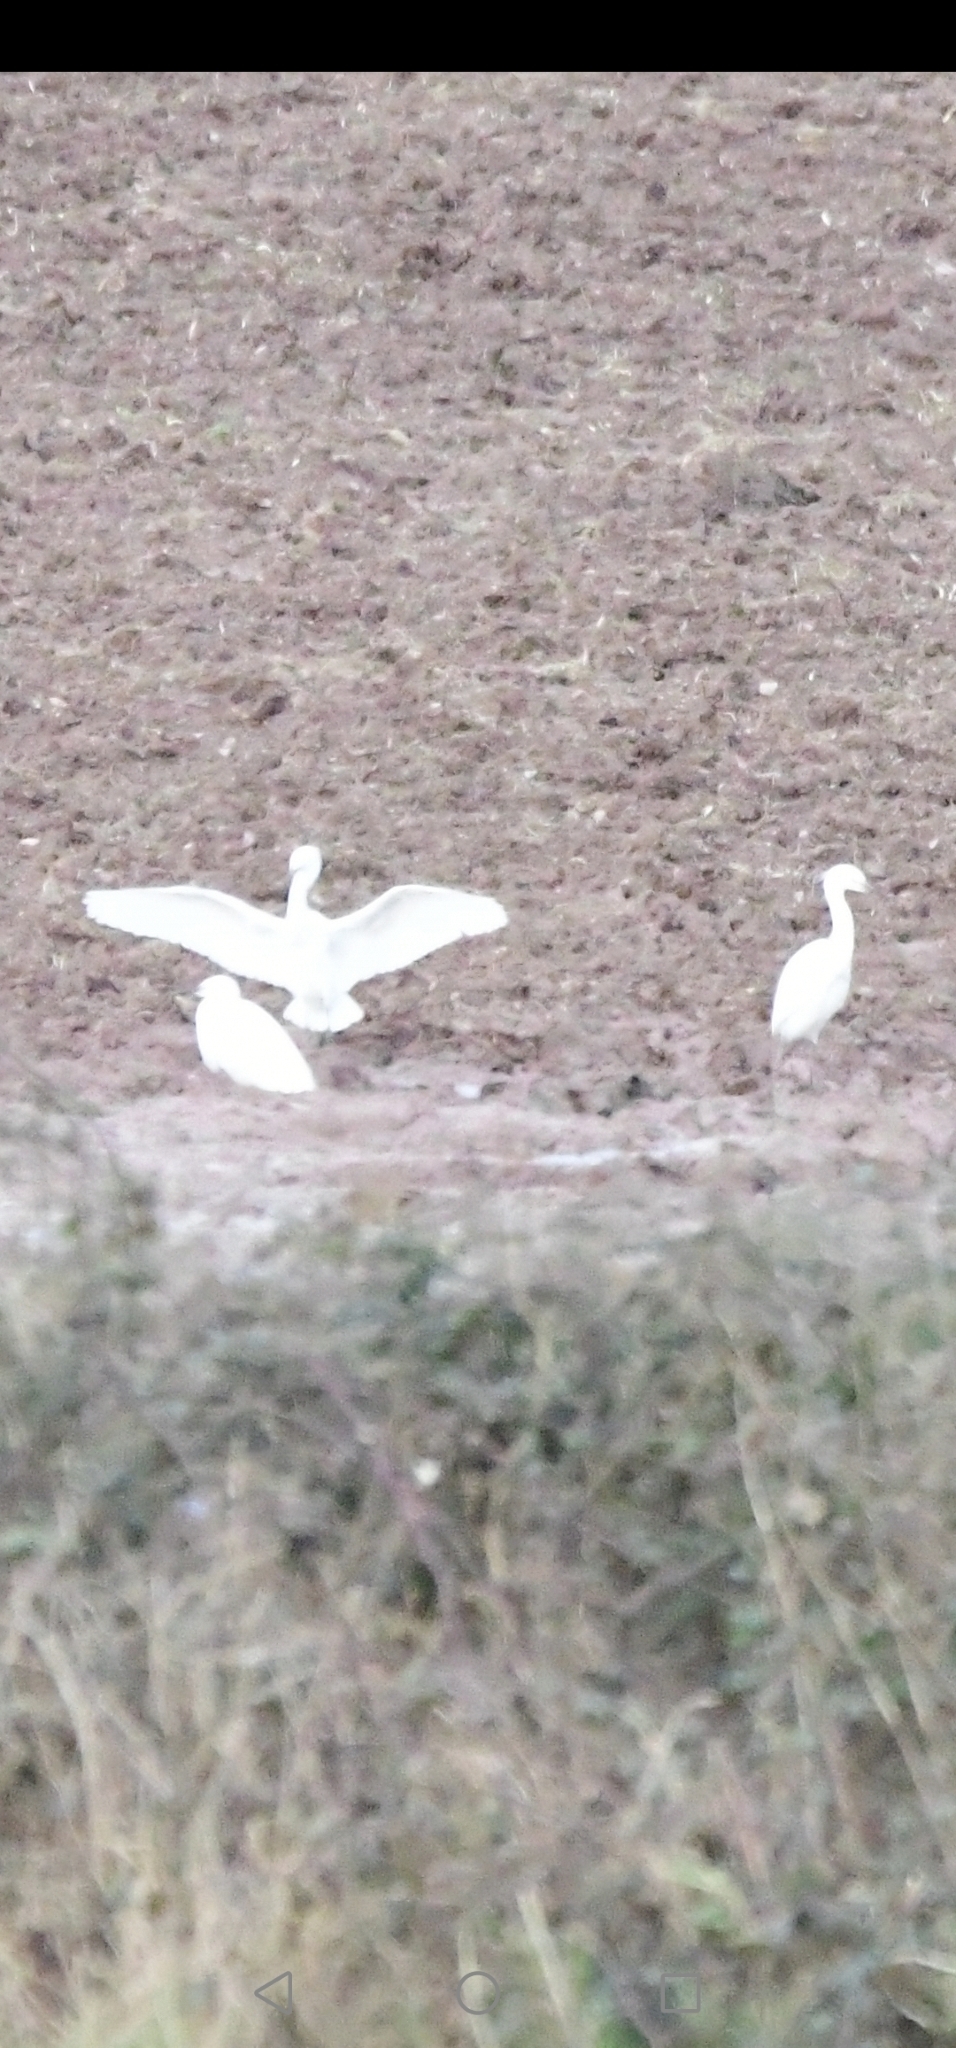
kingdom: Animalia
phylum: Chordata
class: Aves
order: Pelecaniformes
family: Ardeidae
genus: Egretta
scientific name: Egretta garzetta
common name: Little egret
